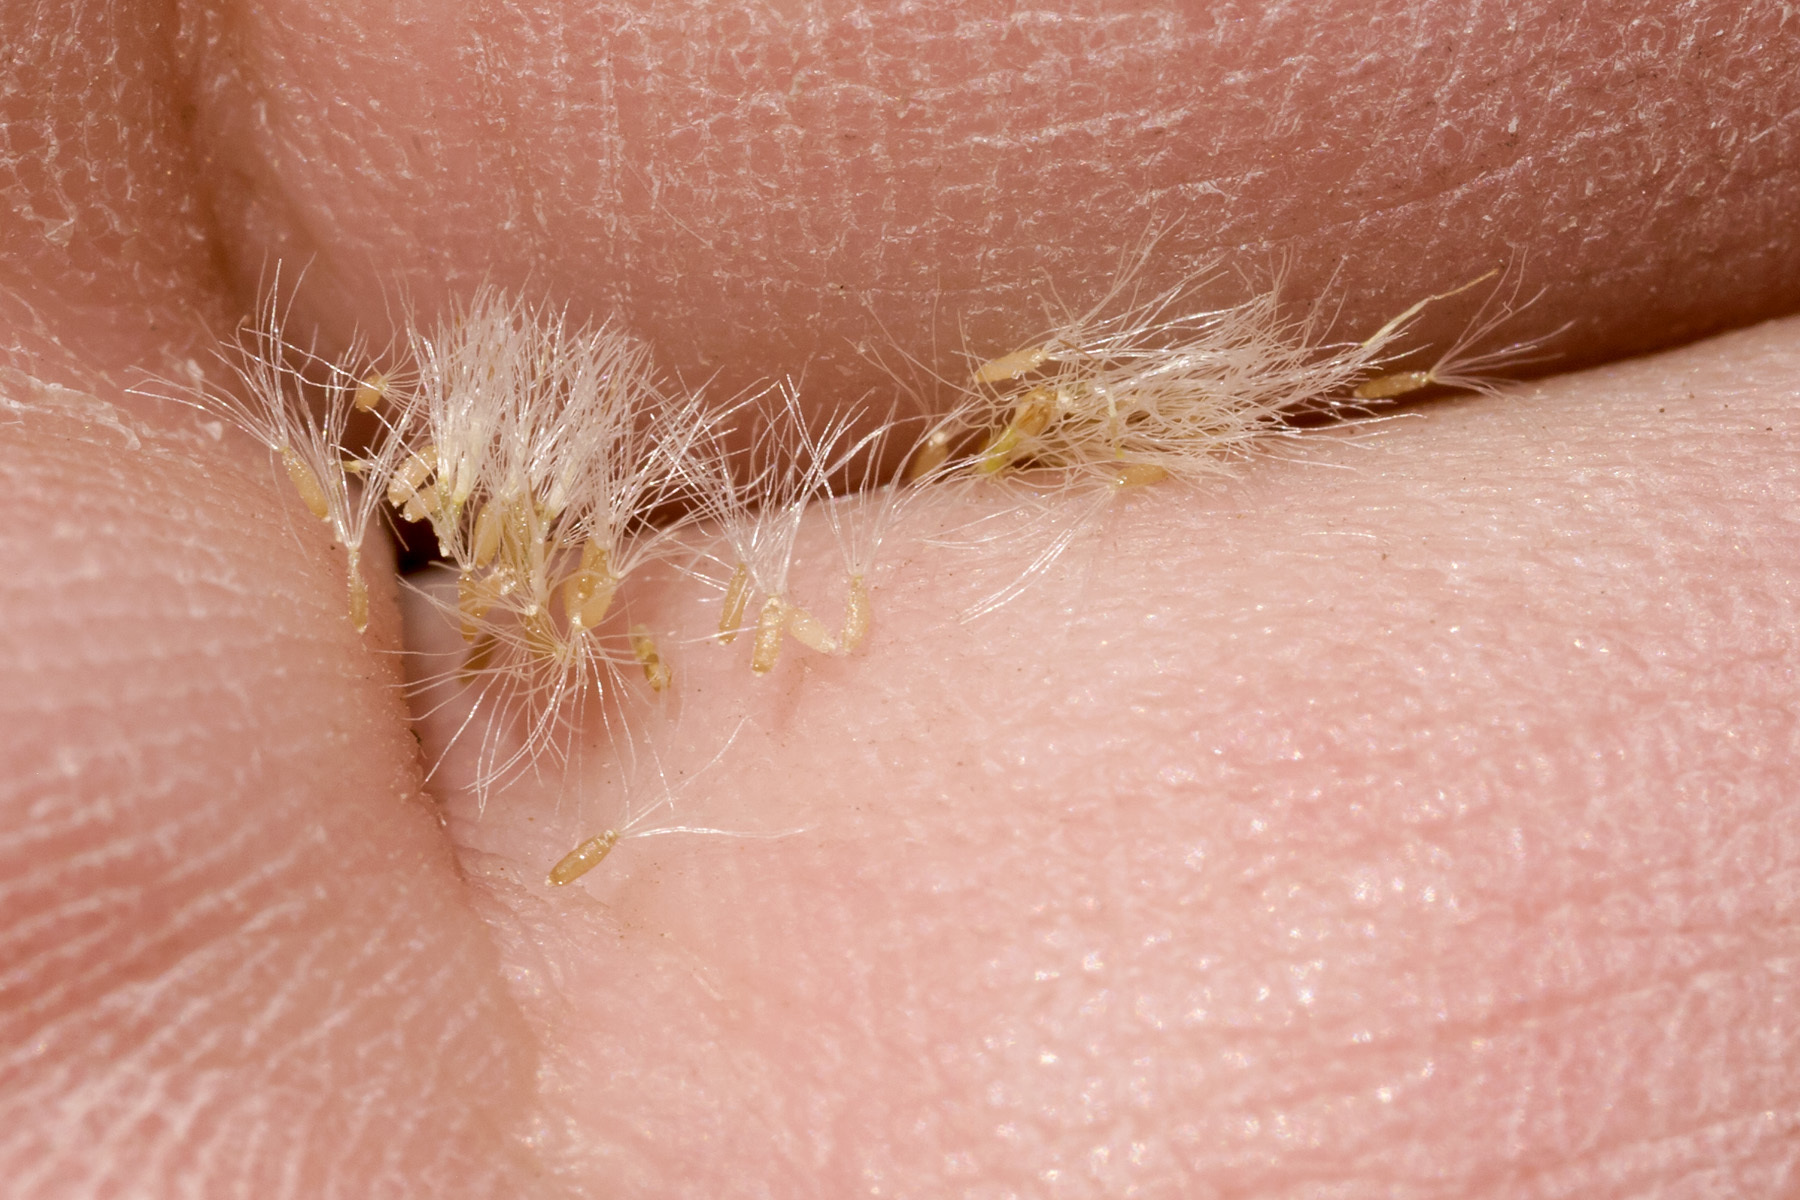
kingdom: Plantae
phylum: Tracheophyta
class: Magnoliopsida
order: Asterales
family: Asteraceae
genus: Laennecia
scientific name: Laennecia coulteri
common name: Coulter's woolwort
